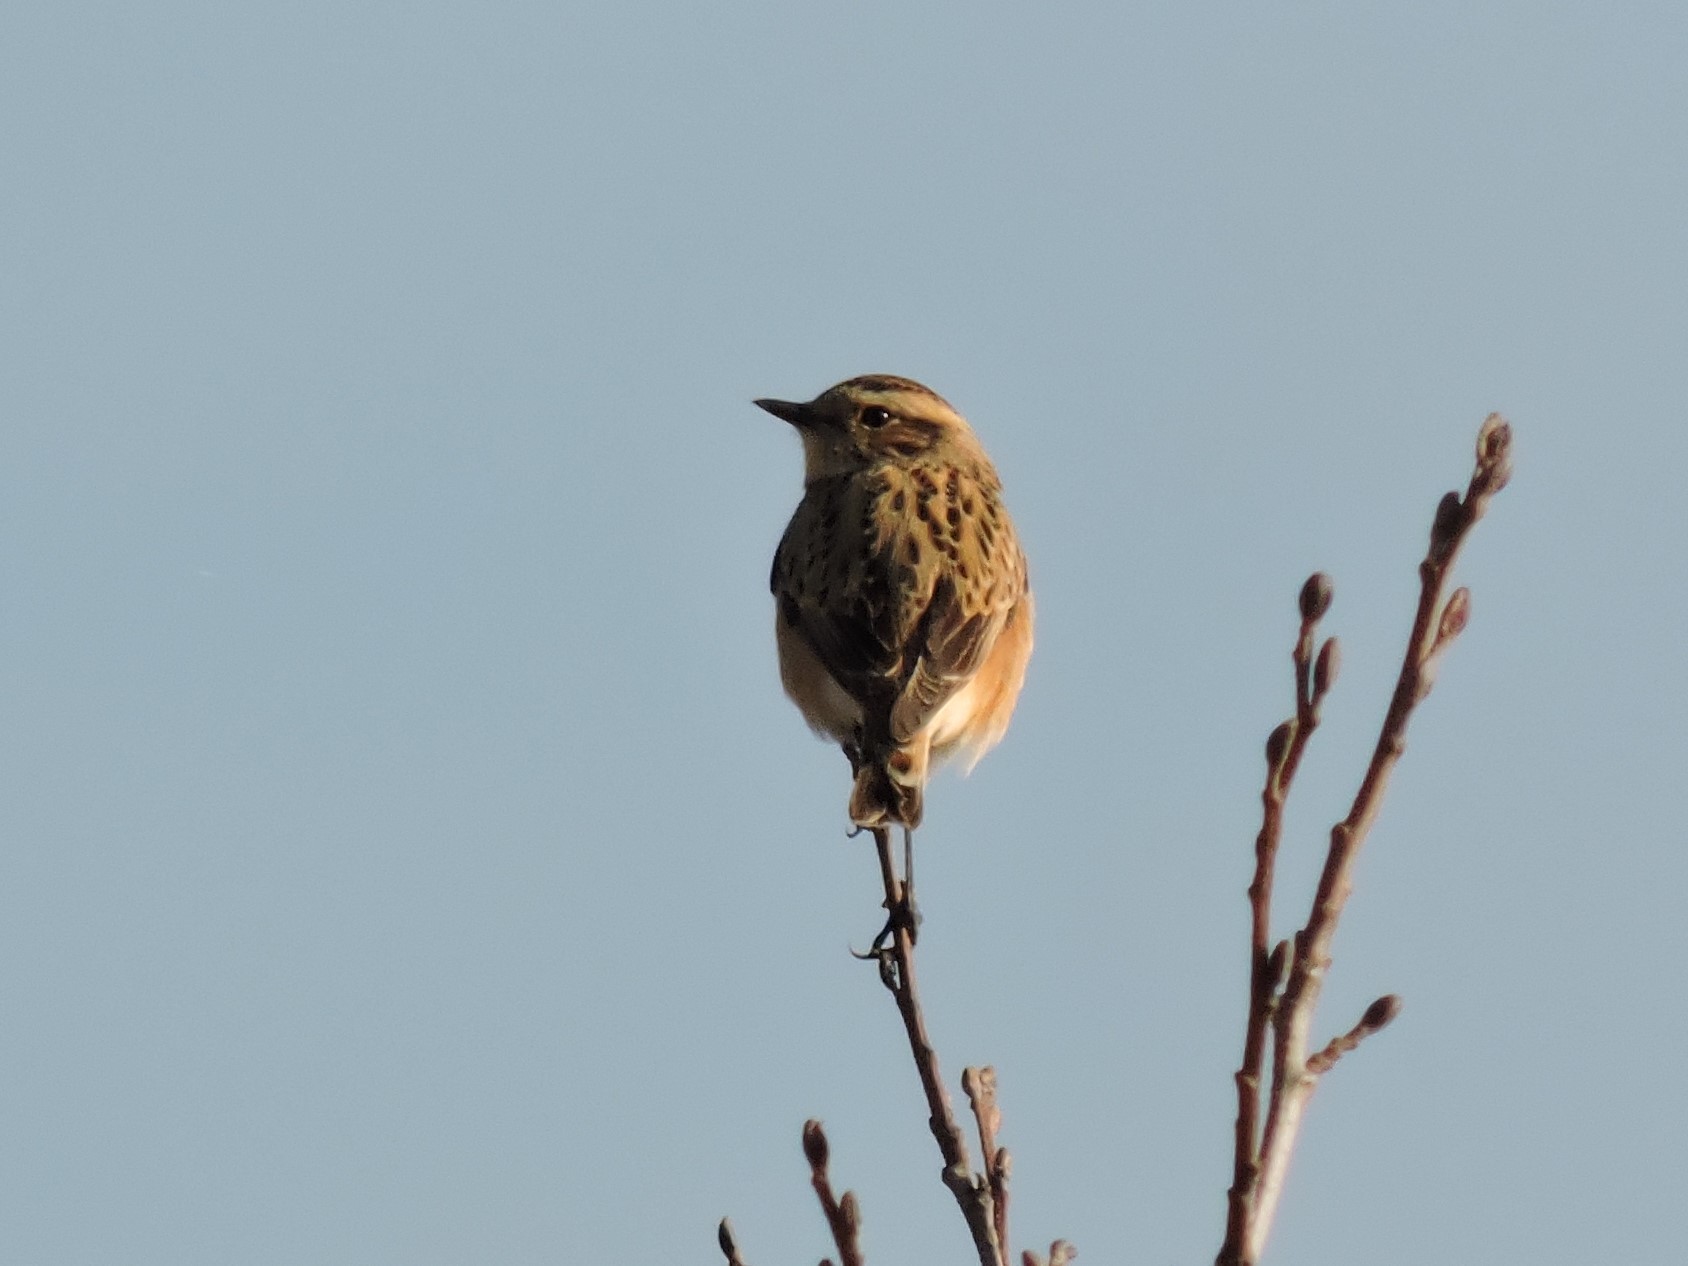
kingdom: Animalia
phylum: Chordata
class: Aves
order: Passeriformes
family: Muscicapidae
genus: Saxicola
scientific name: Saxicola rubetra
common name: Whinchat
